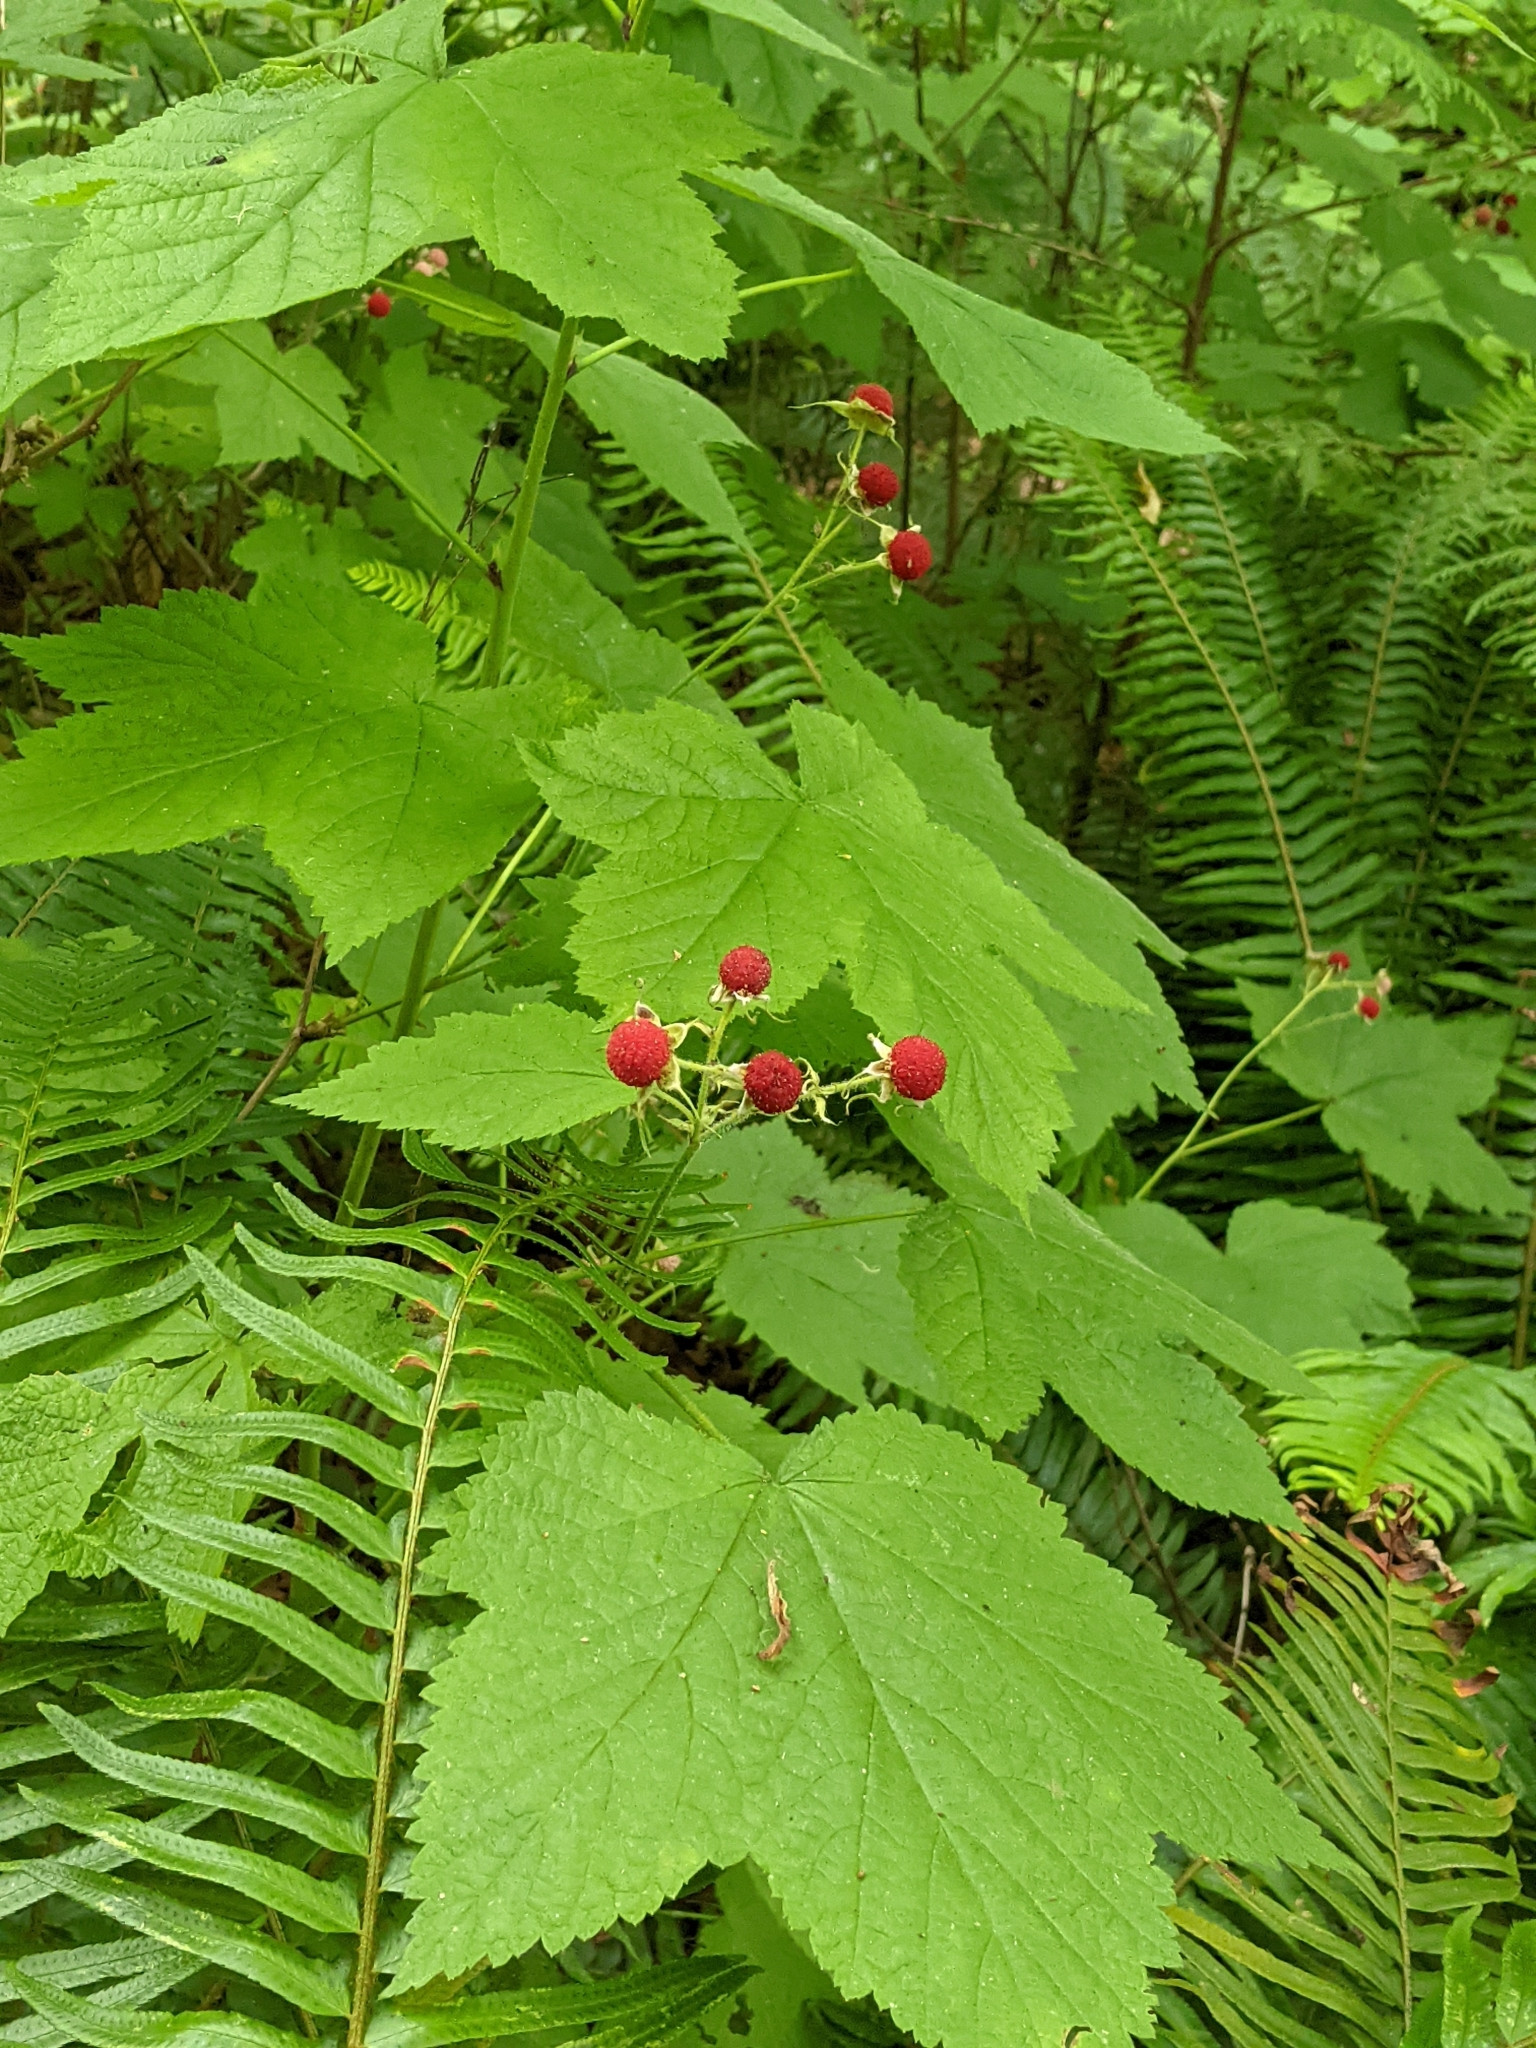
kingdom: Plantae
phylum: Tracheophyta
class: Magnoliopsida
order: Rosales
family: Rosaceae
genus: Rubus
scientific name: Rubus parviflorus
